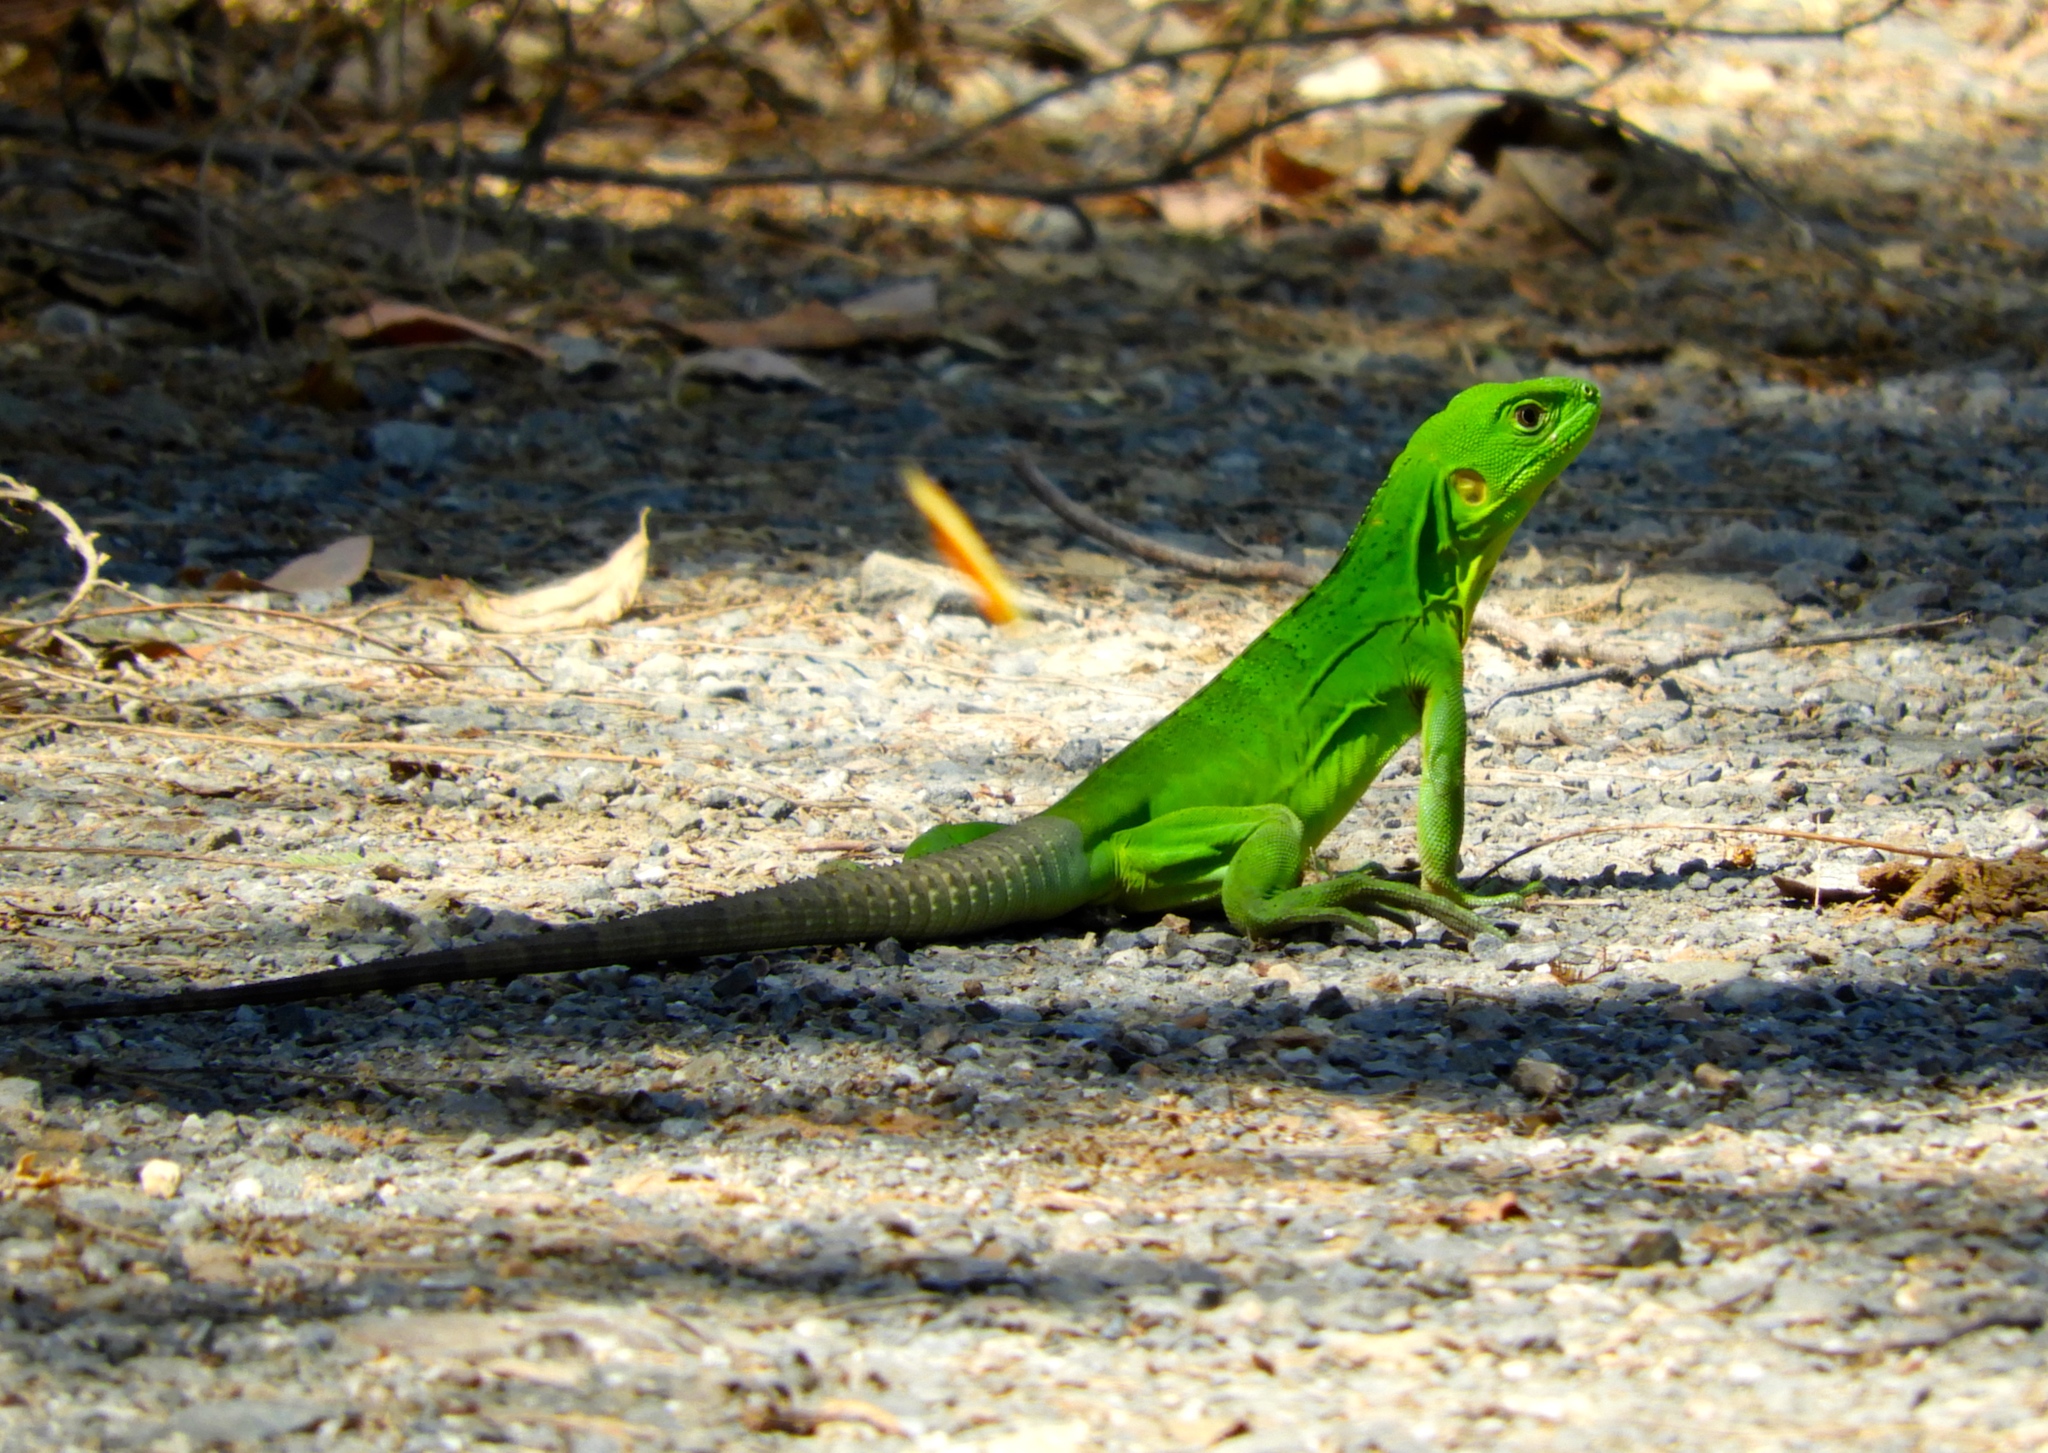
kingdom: Animalia
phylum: Chordata
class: Squamata
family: Iguanidae
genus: Ctenosaura
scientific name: Ctenosaura pectinata
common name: Guerreran spiny-tailed iguana
